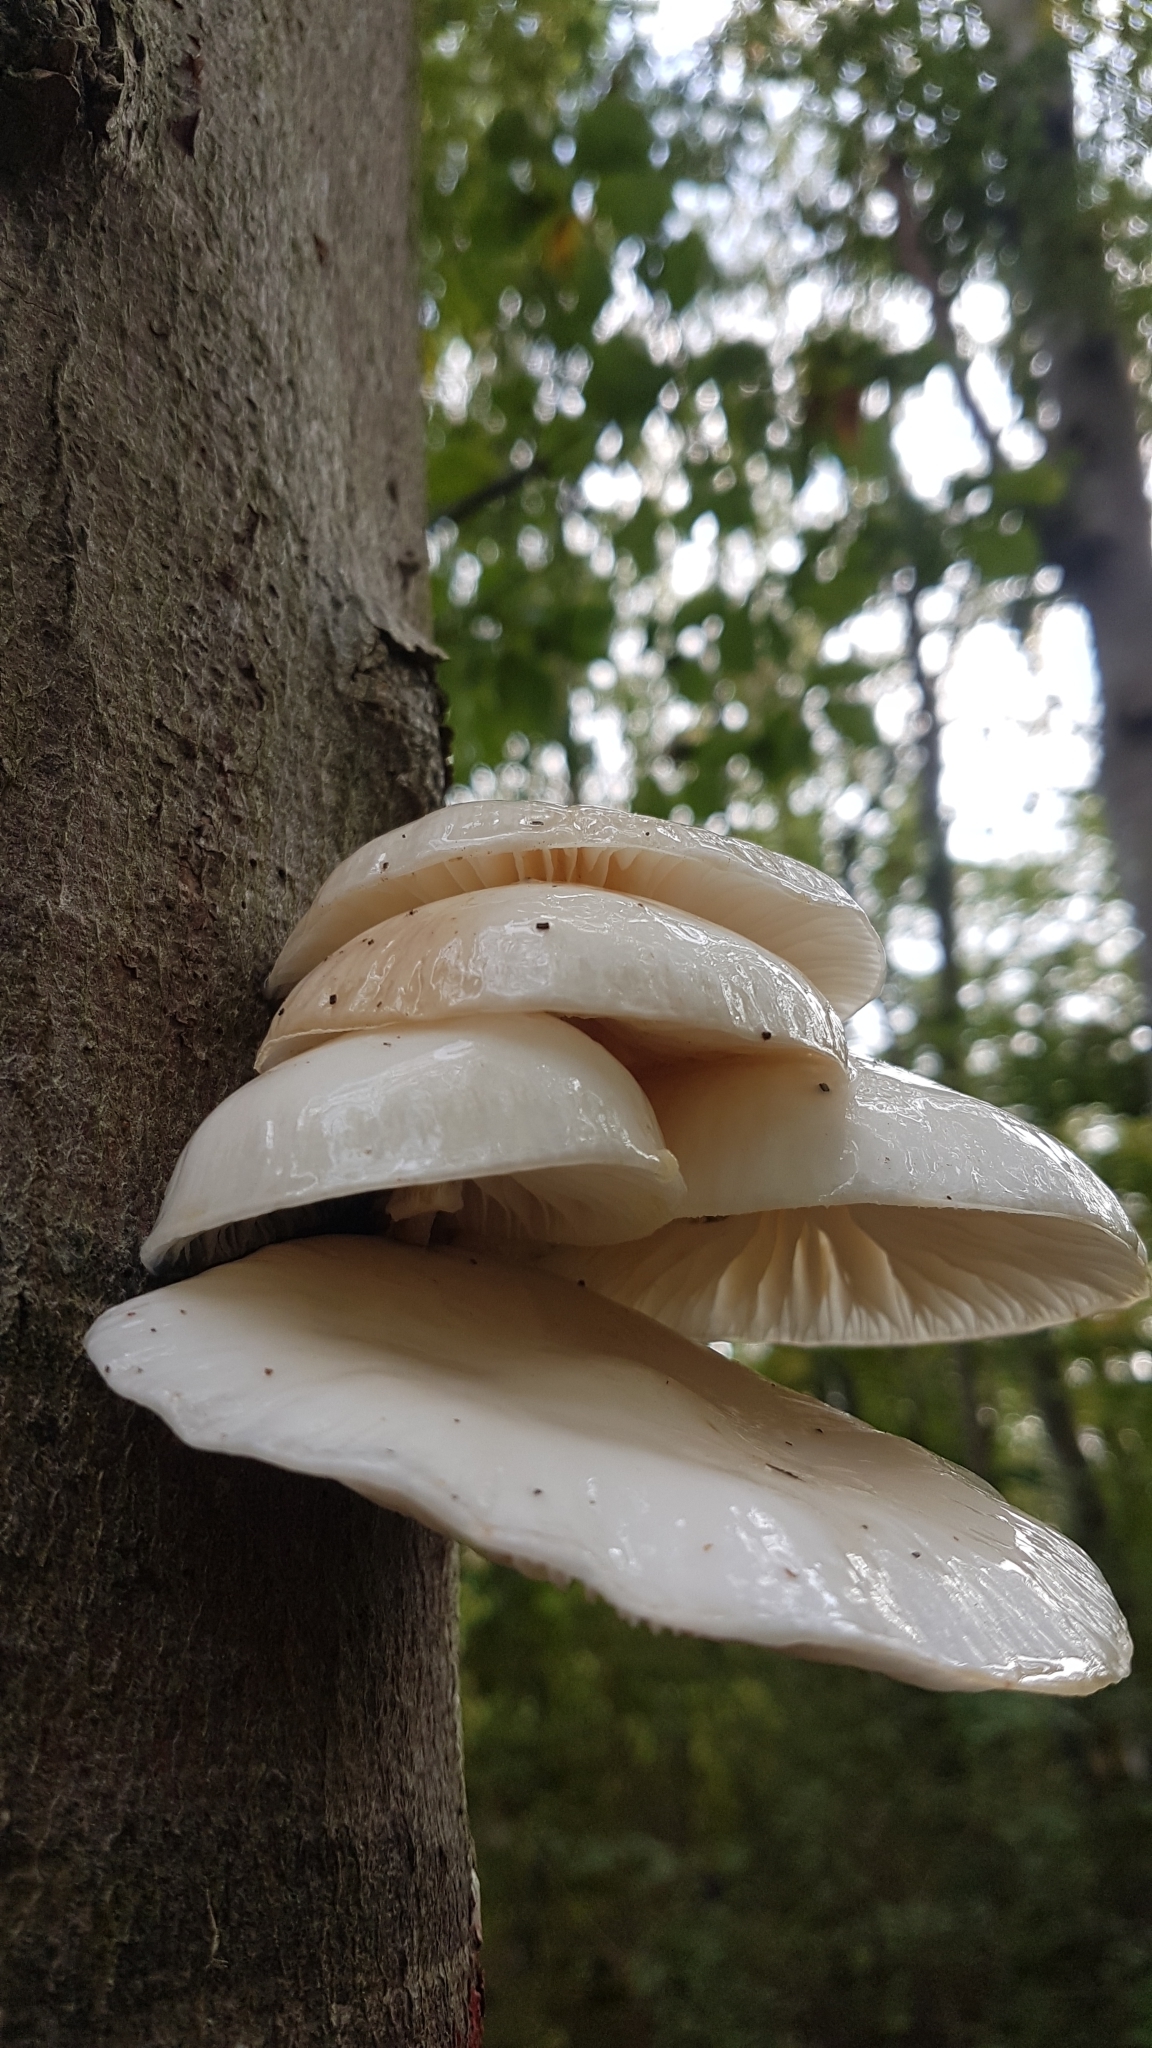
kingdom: Fungi
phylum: Basidiomycota
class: Agaricomycetes
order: Agaricales
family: Physalacriaceae
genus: Mucidula
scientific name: Mucidula mucida
